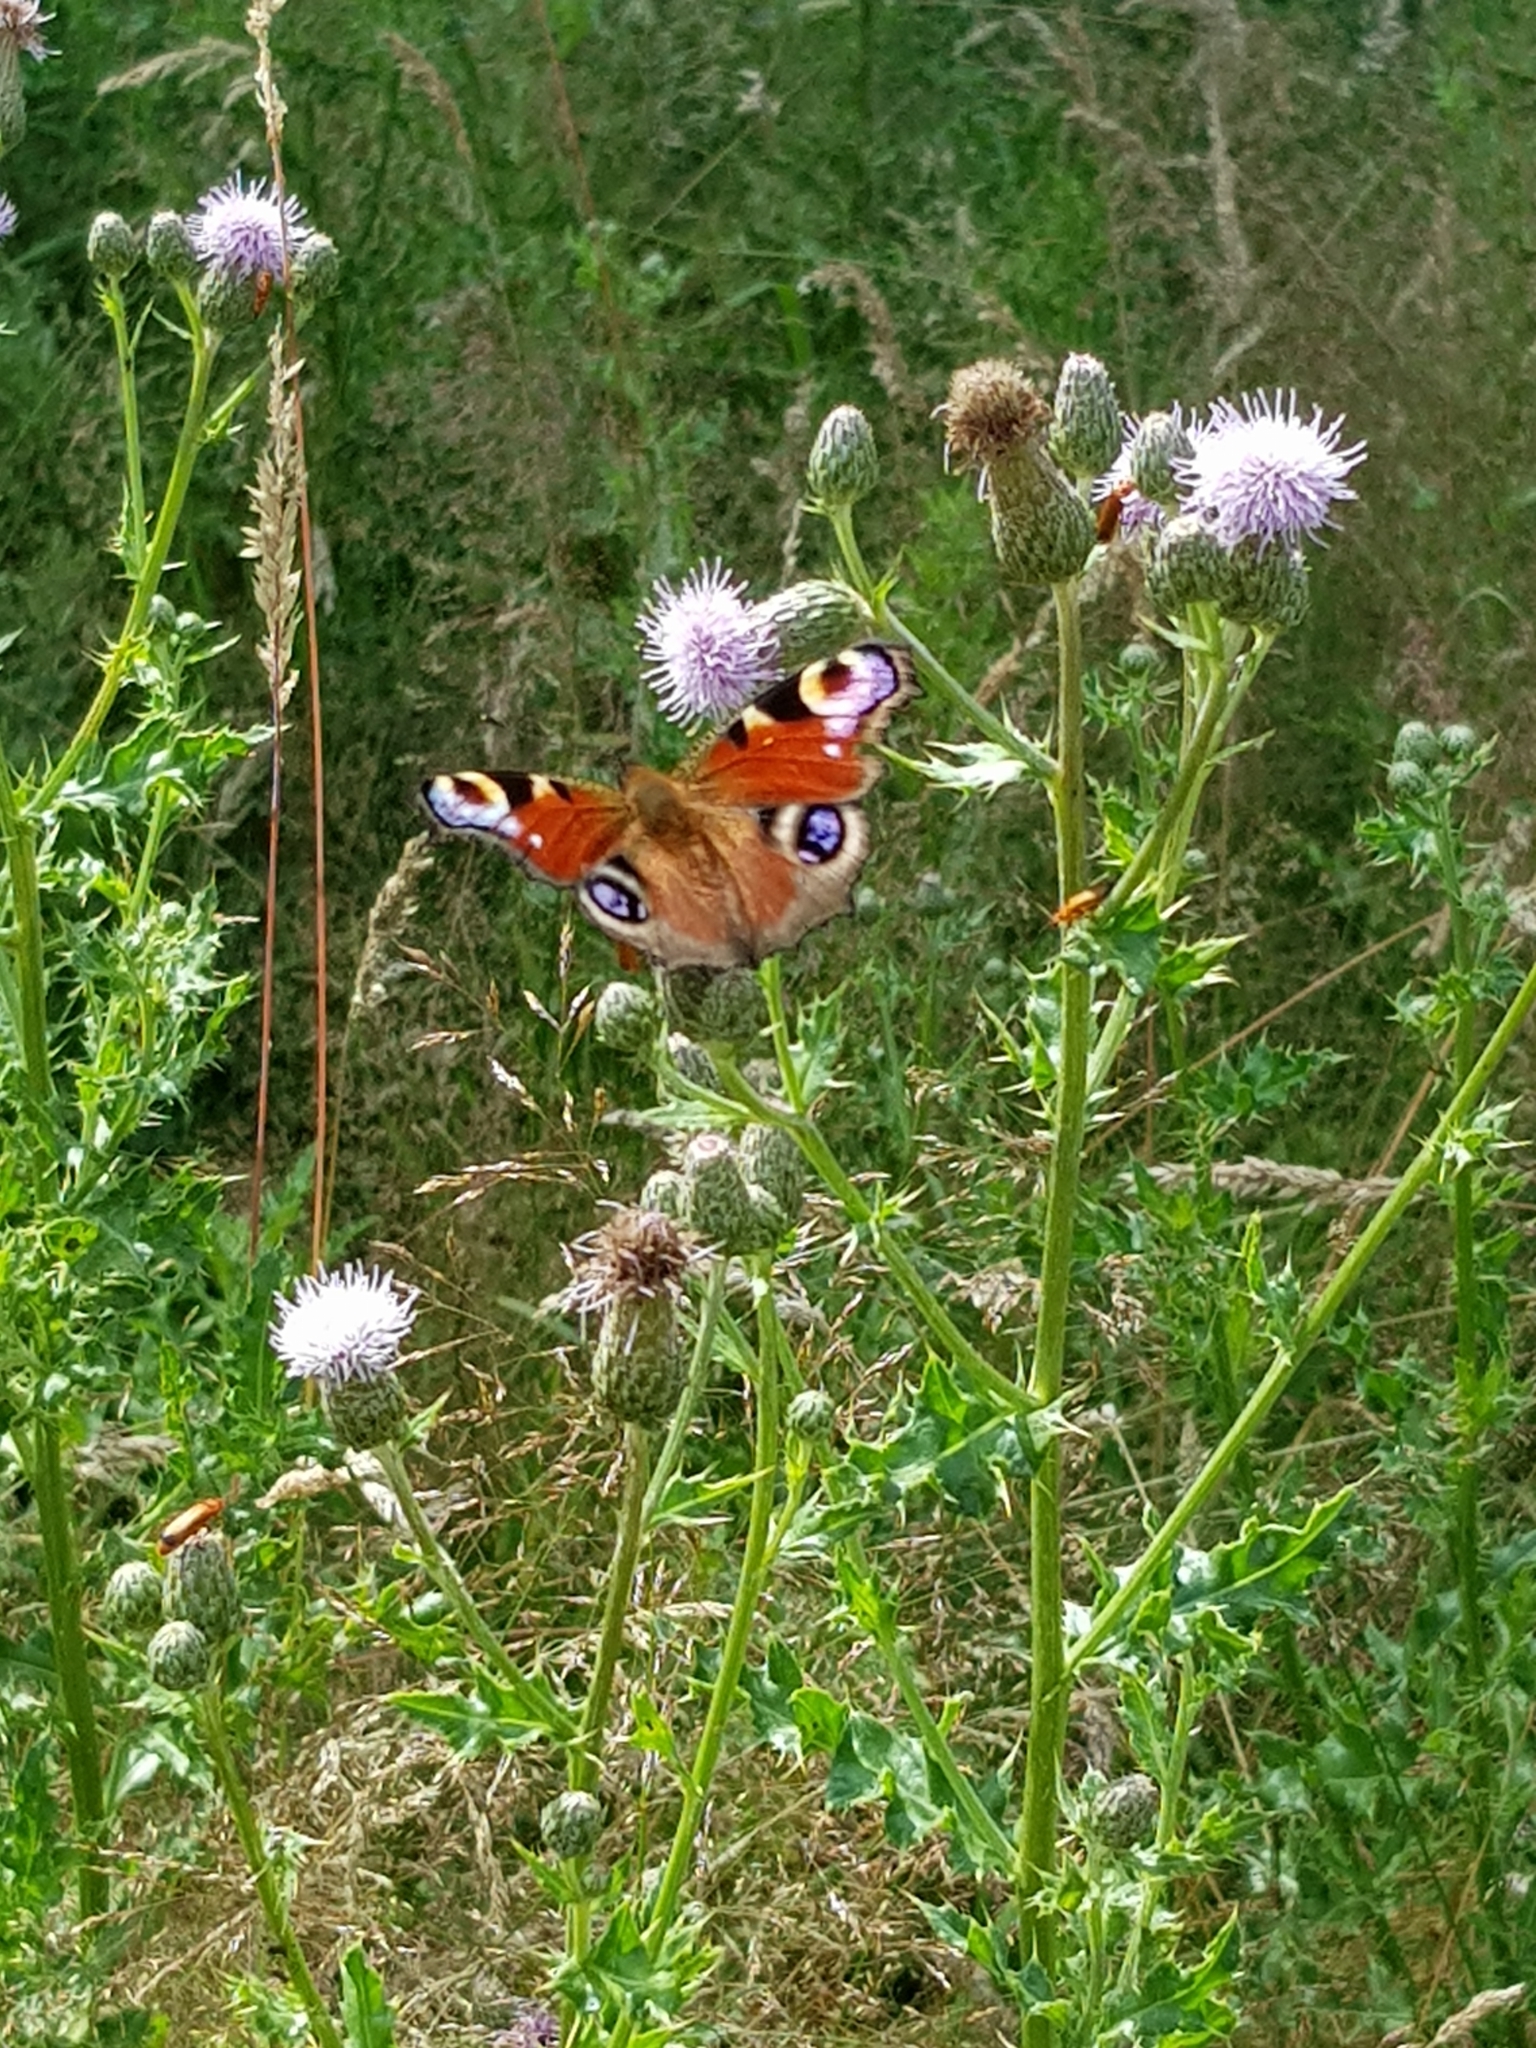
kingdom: Animalia
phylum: Arthropoda
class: Insecta
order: Lepidoptera
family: Nymphalidae
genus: Aglais
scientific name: Aglais io
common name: Peacock
